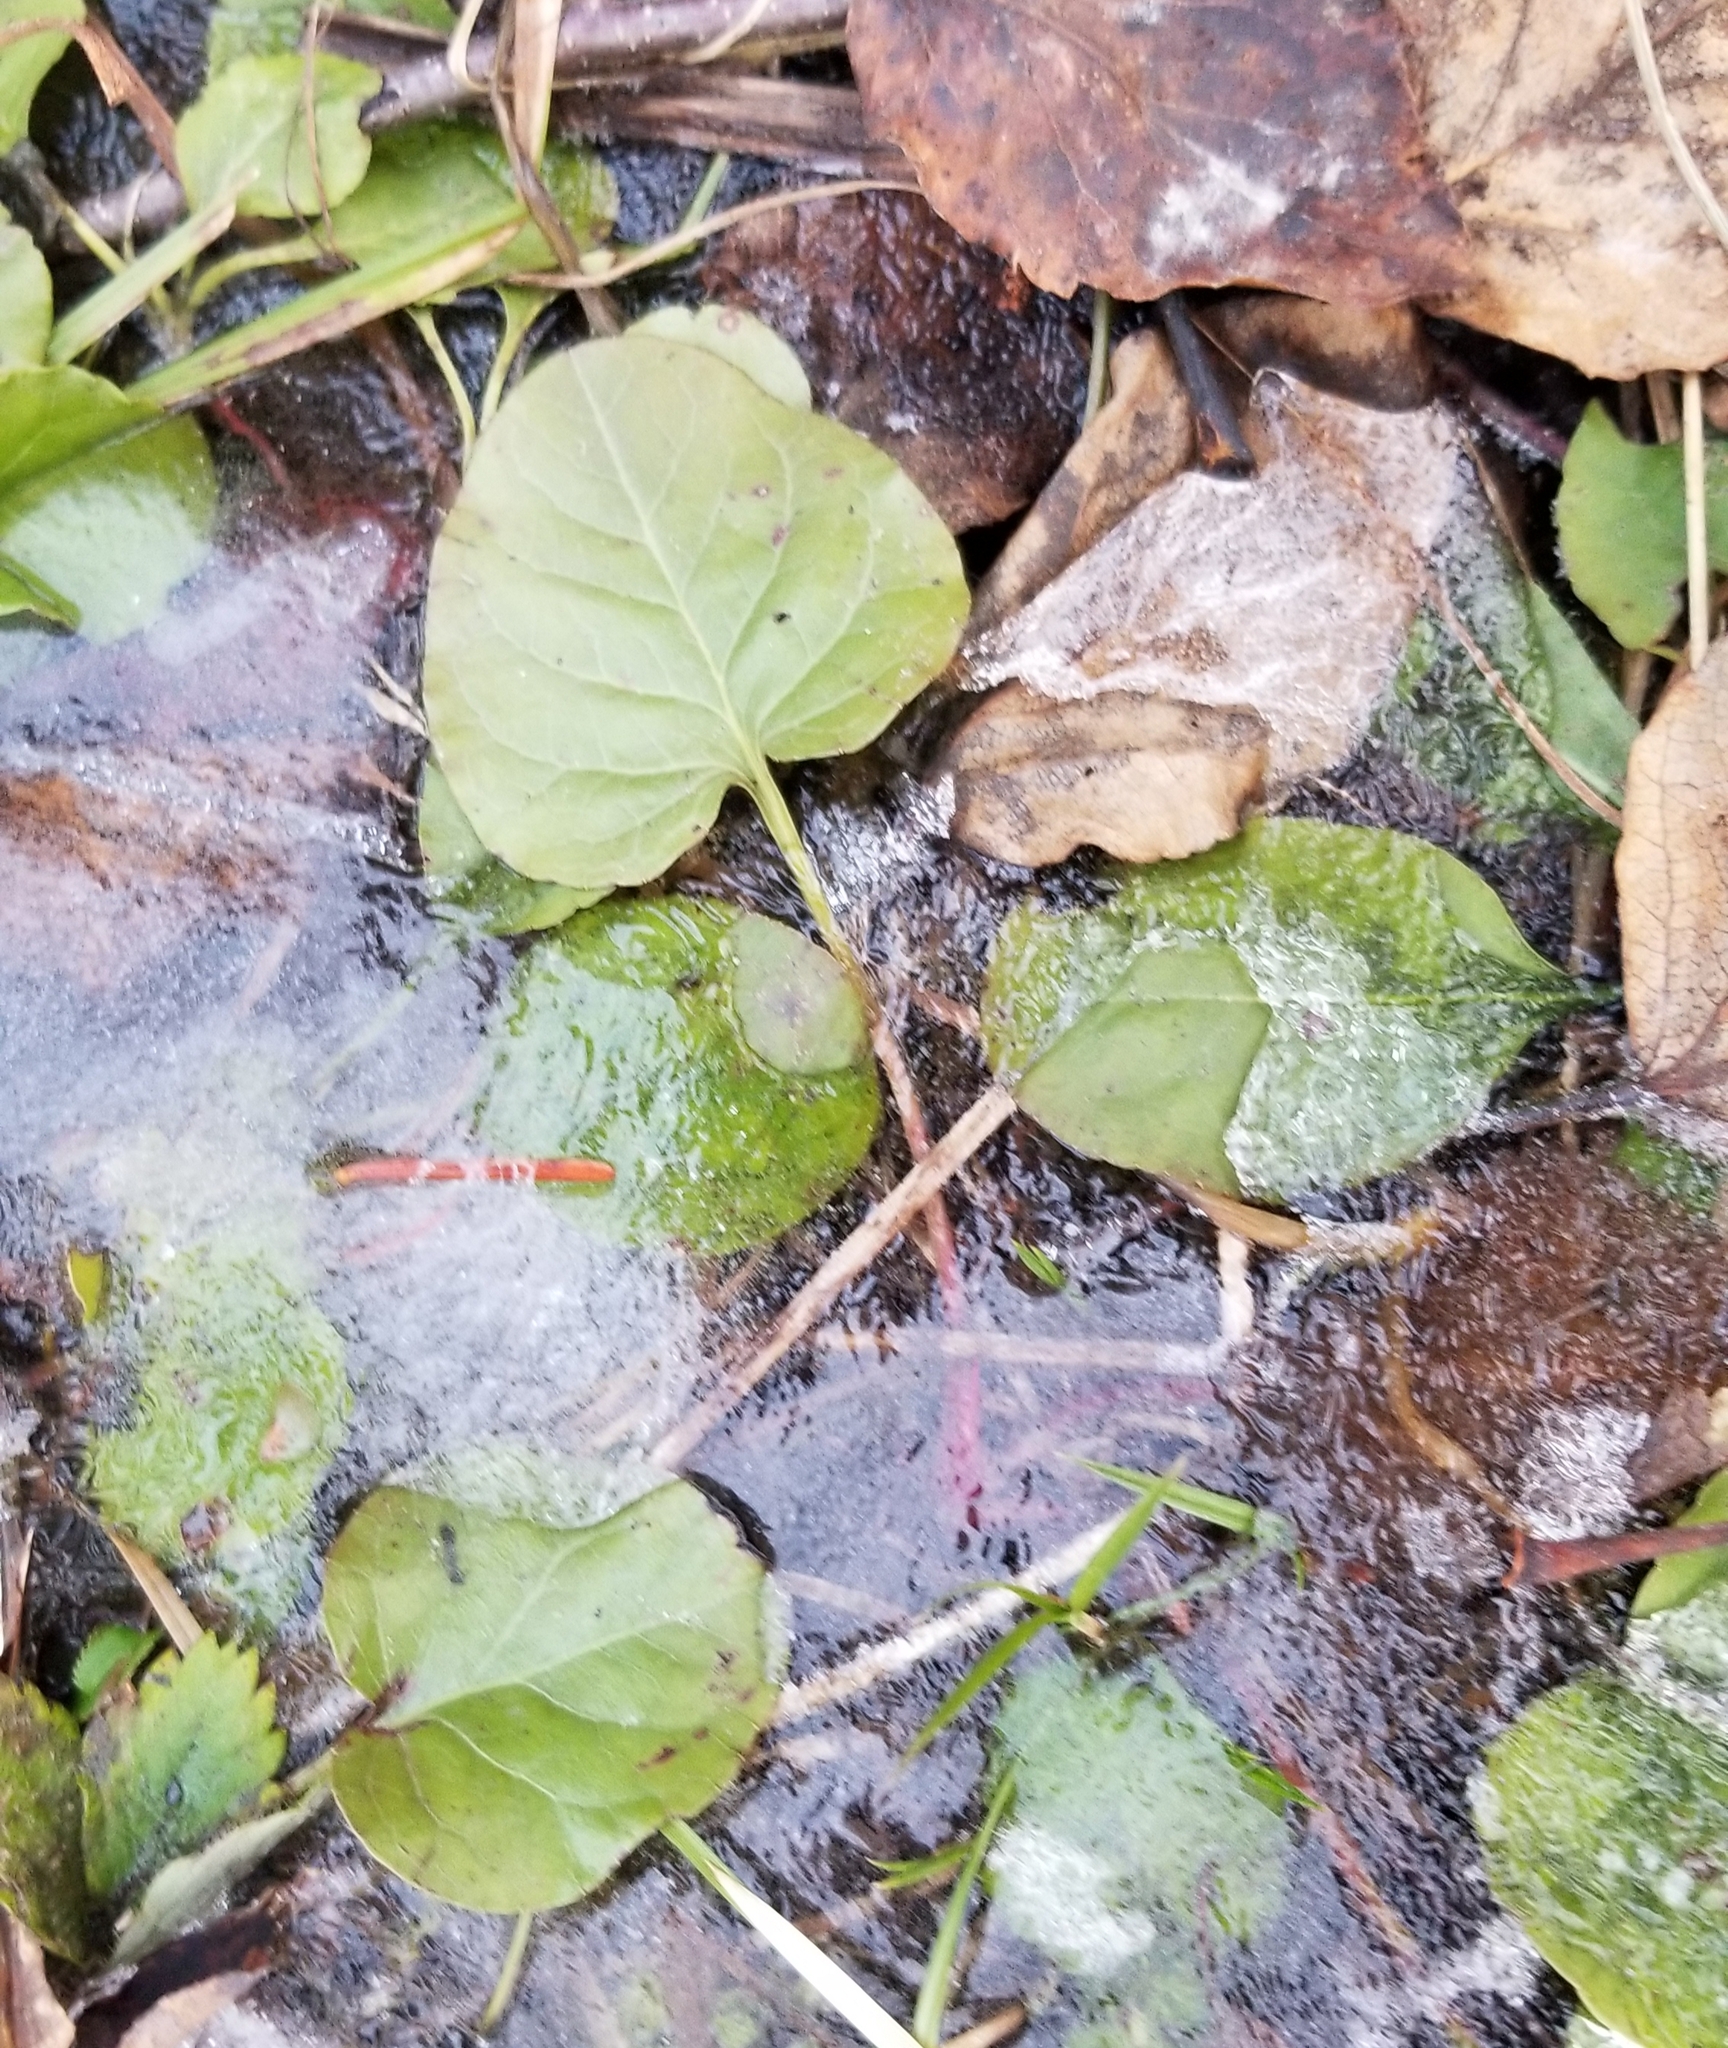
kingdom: Plantae
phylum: Tracheophyta
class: Magnoliopsida
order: Ericales
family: Ericaceae
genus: Pyrola
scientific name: Pyrola asarifolia
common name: Bog wintergreen
